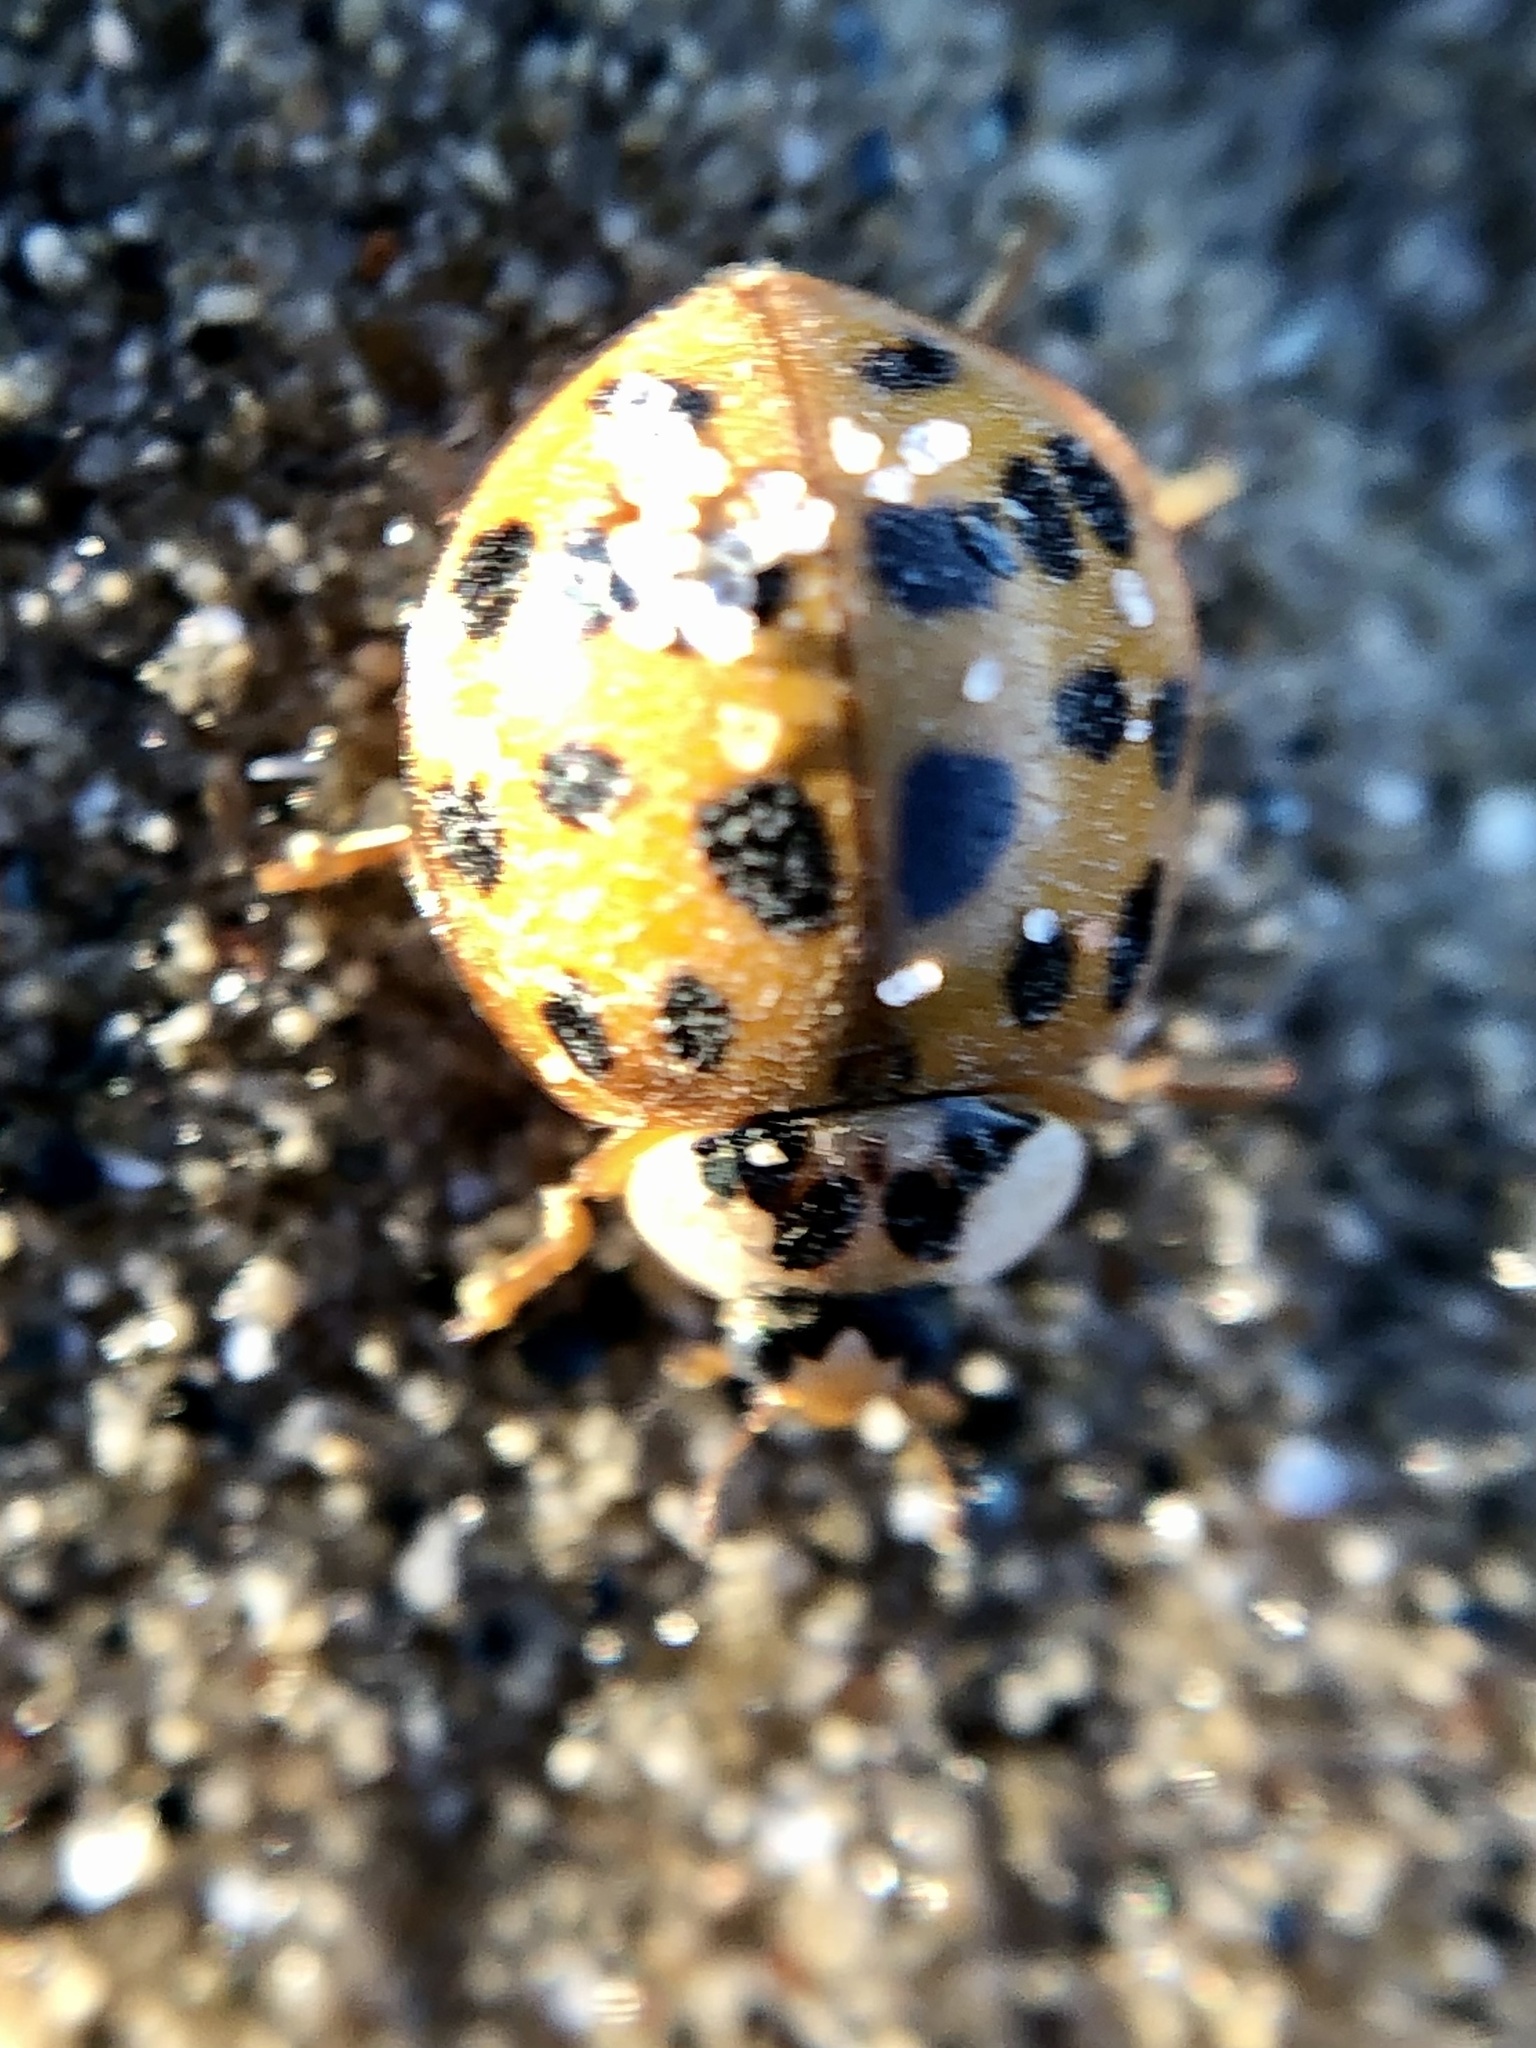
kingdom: Animalia
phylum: Arthropoda
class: Insecta
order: Coleoptera
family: Coccinellidae
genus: Harmonia
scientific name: Harmonia axyridis
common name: Harlequin ladybird
